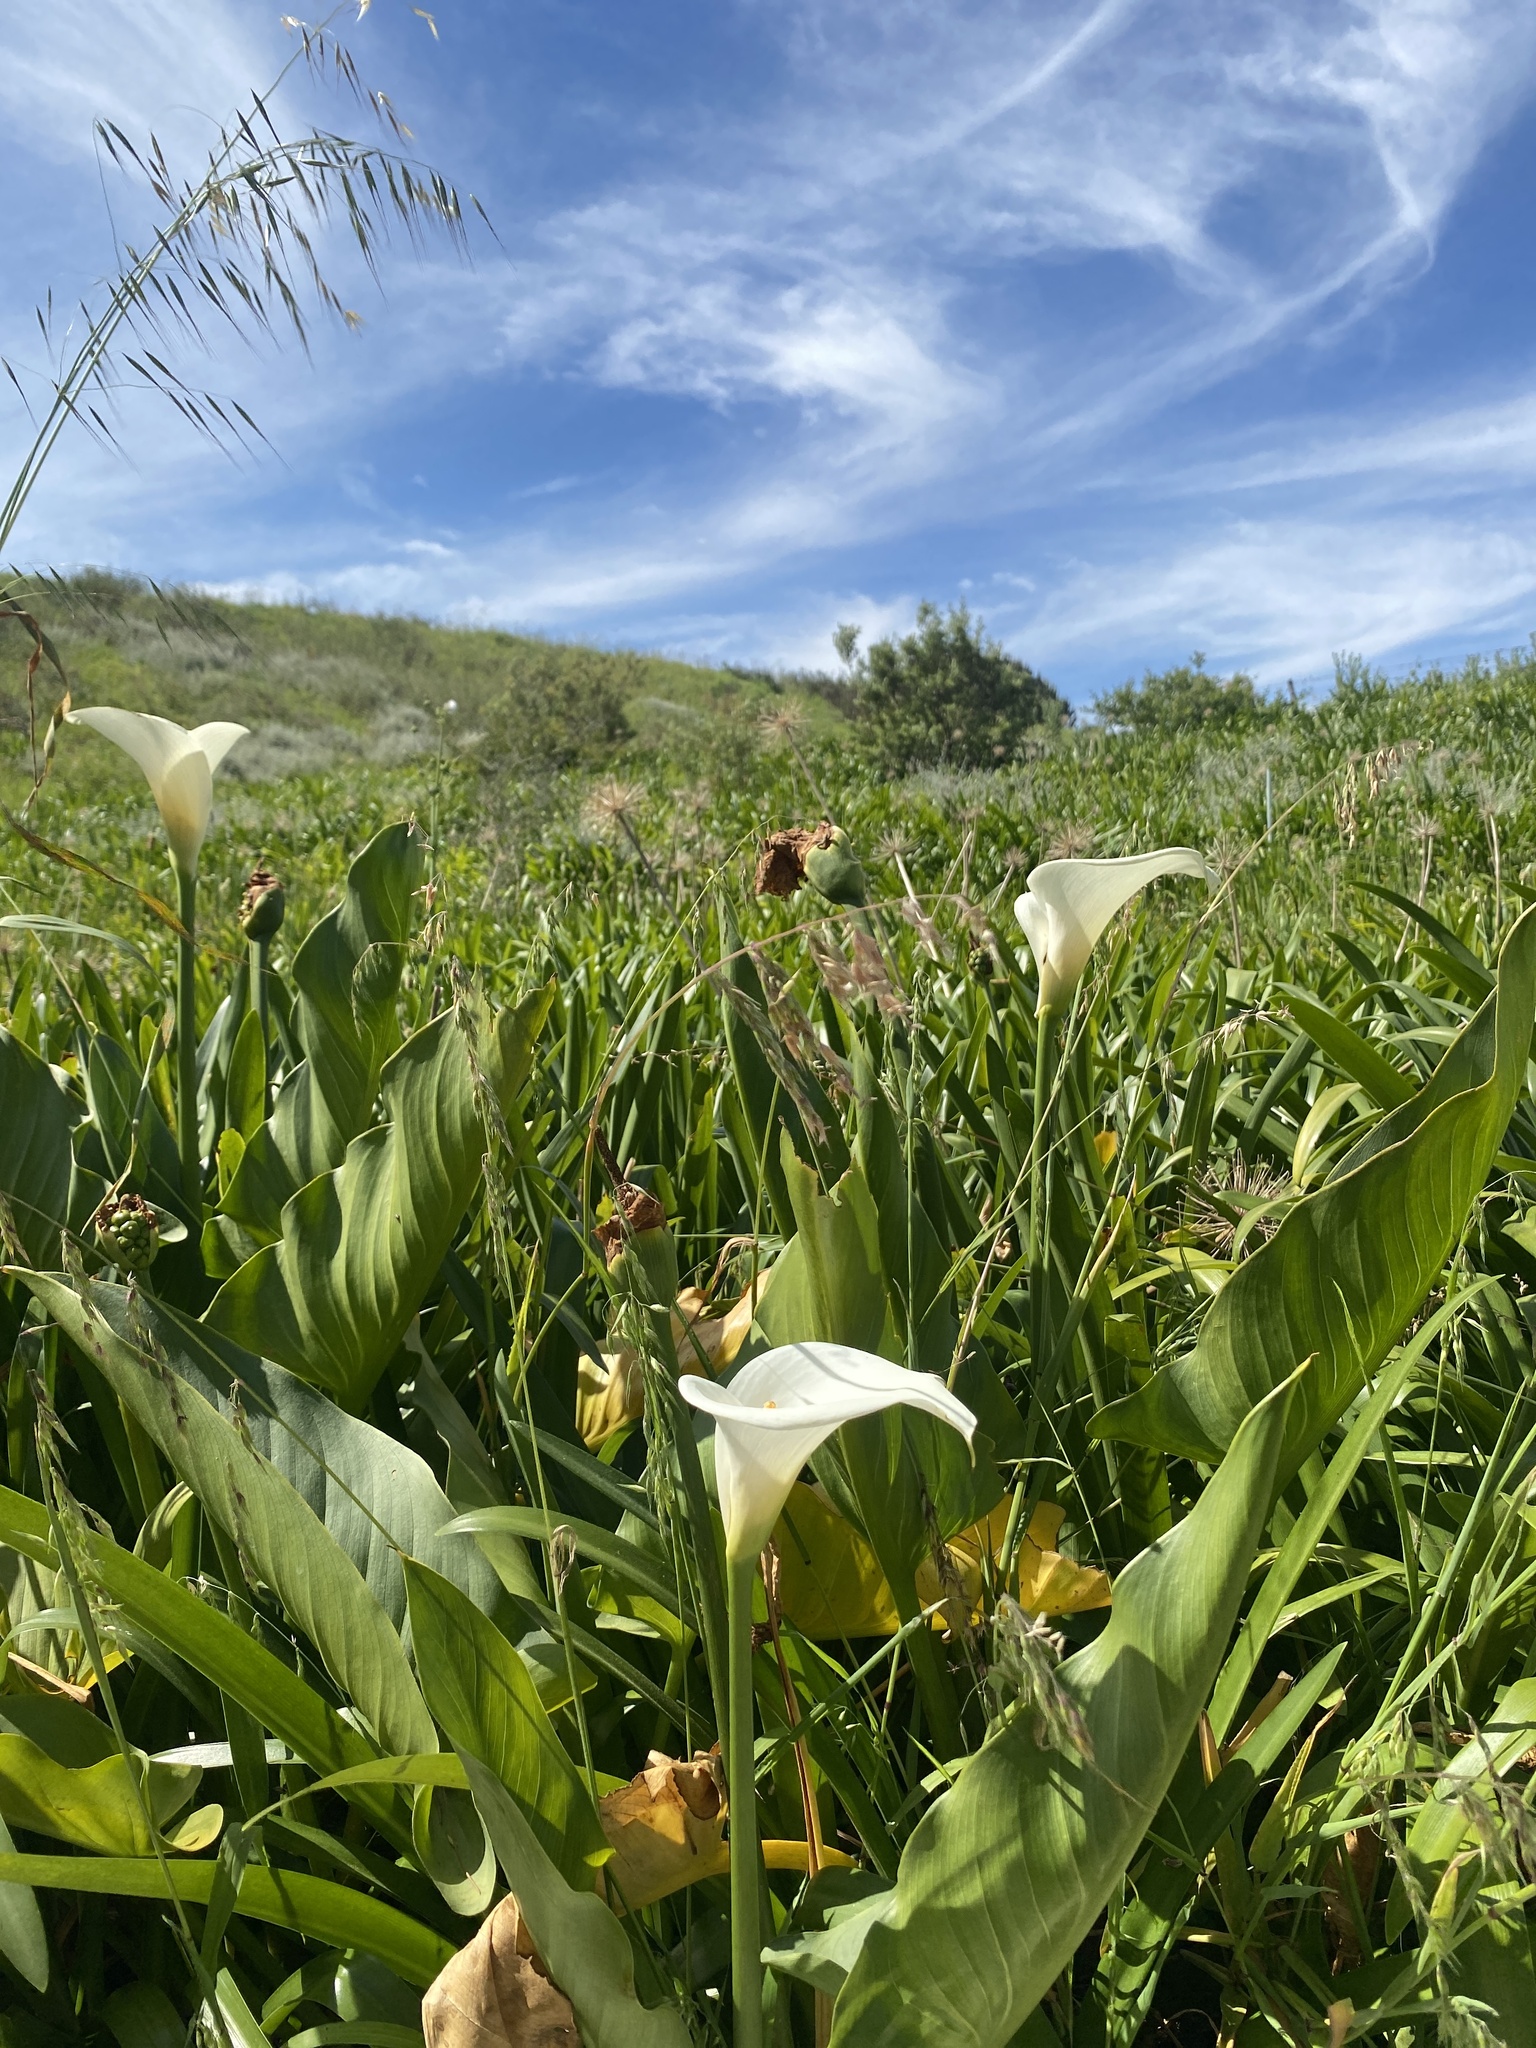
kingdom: Plantae
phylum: Tracheophyta
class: Liliopsida
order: Alismatales
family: Araceae
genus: Zantedeschia
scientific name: Zantedeschia aethiopica
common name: Altar-lily
